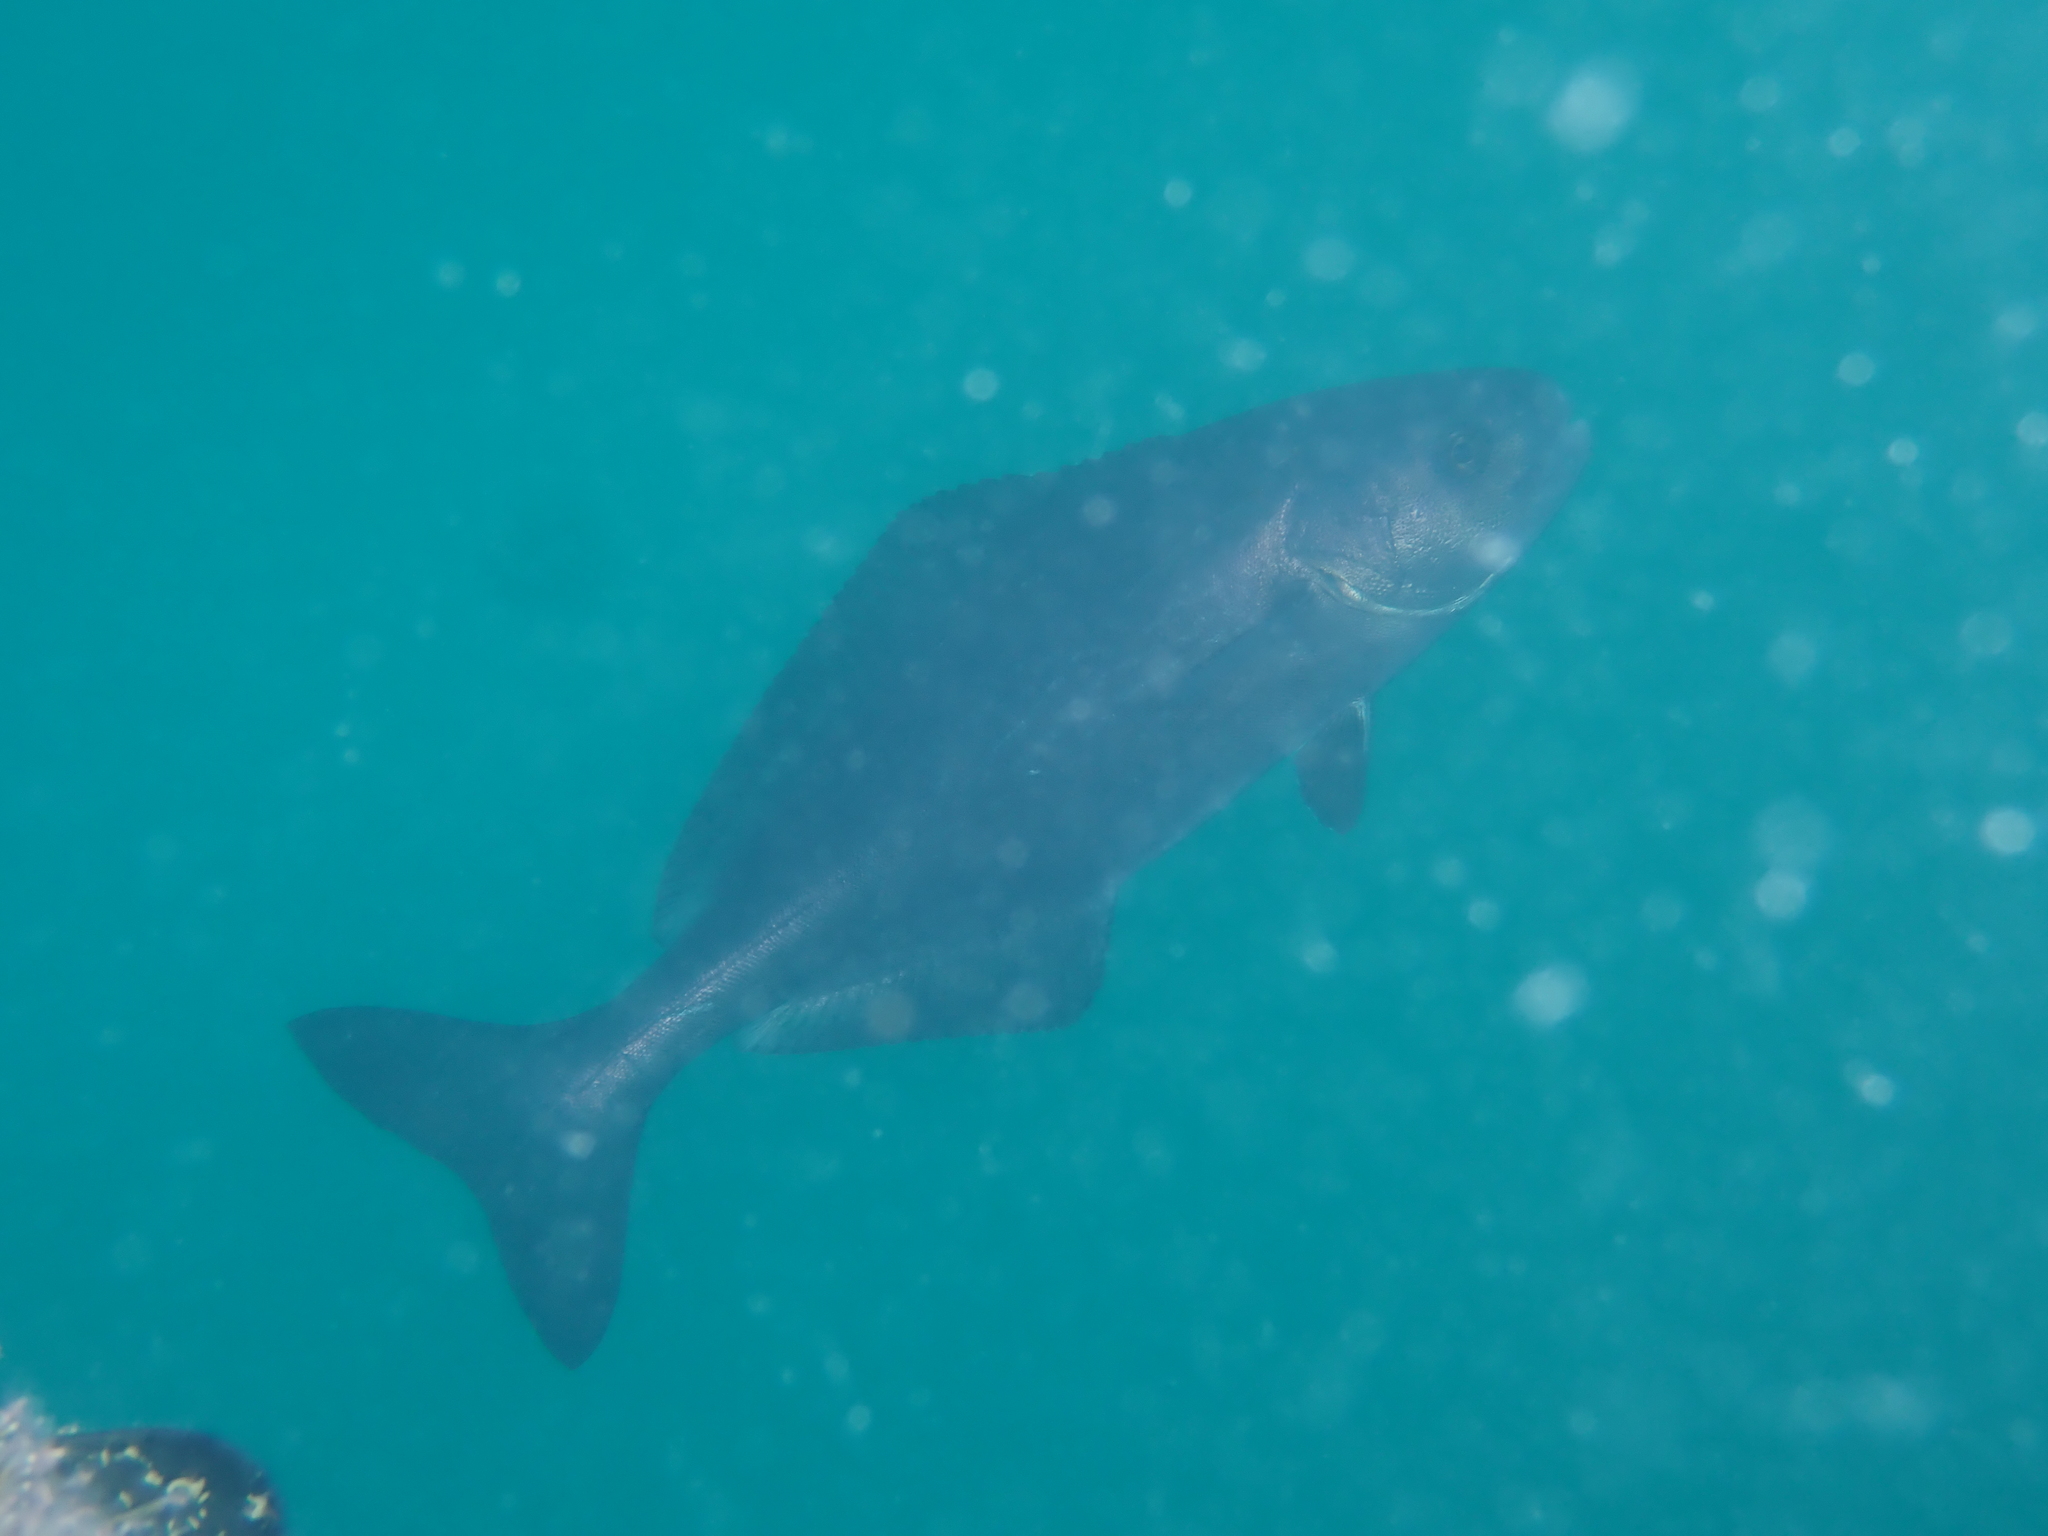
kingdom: Animalia
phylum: Chordata
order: Perciformes
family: Centrolophidae
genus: Centrolophus
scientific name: Centrolophus niger
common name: Blackfish
